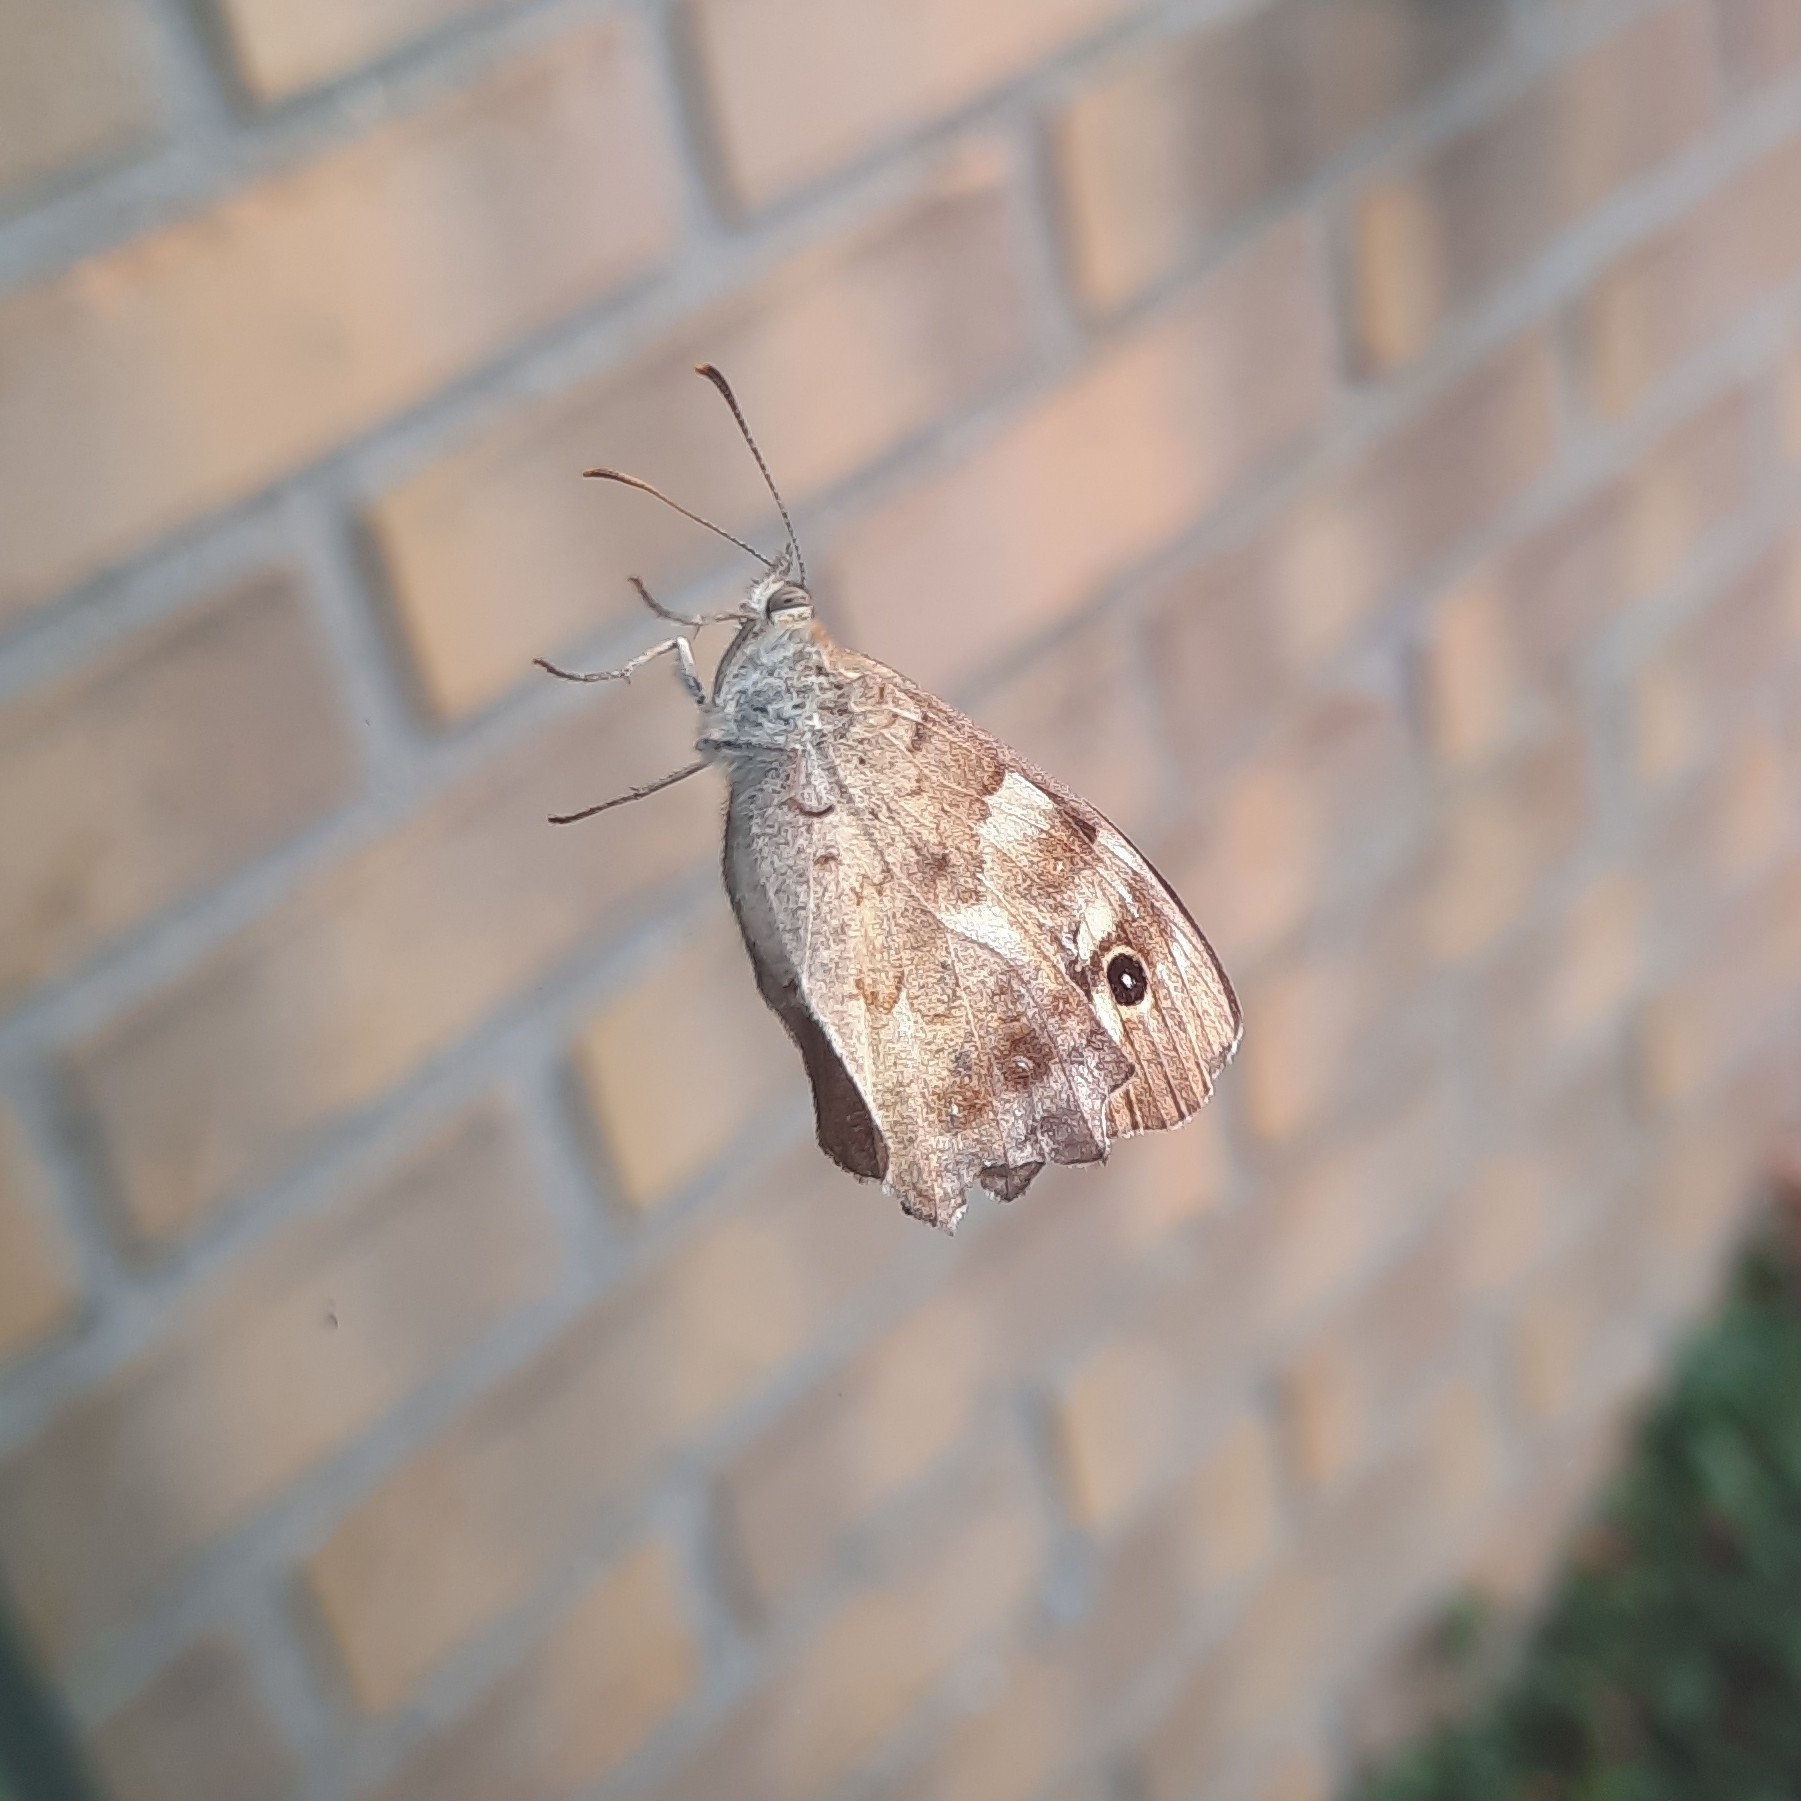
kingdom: Animalia
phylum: Arthropoda
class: Insecta
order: Lepidoptera
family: Nymphalidae
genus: Pararge
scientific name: Pararge aegeria
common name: Speckled wood
